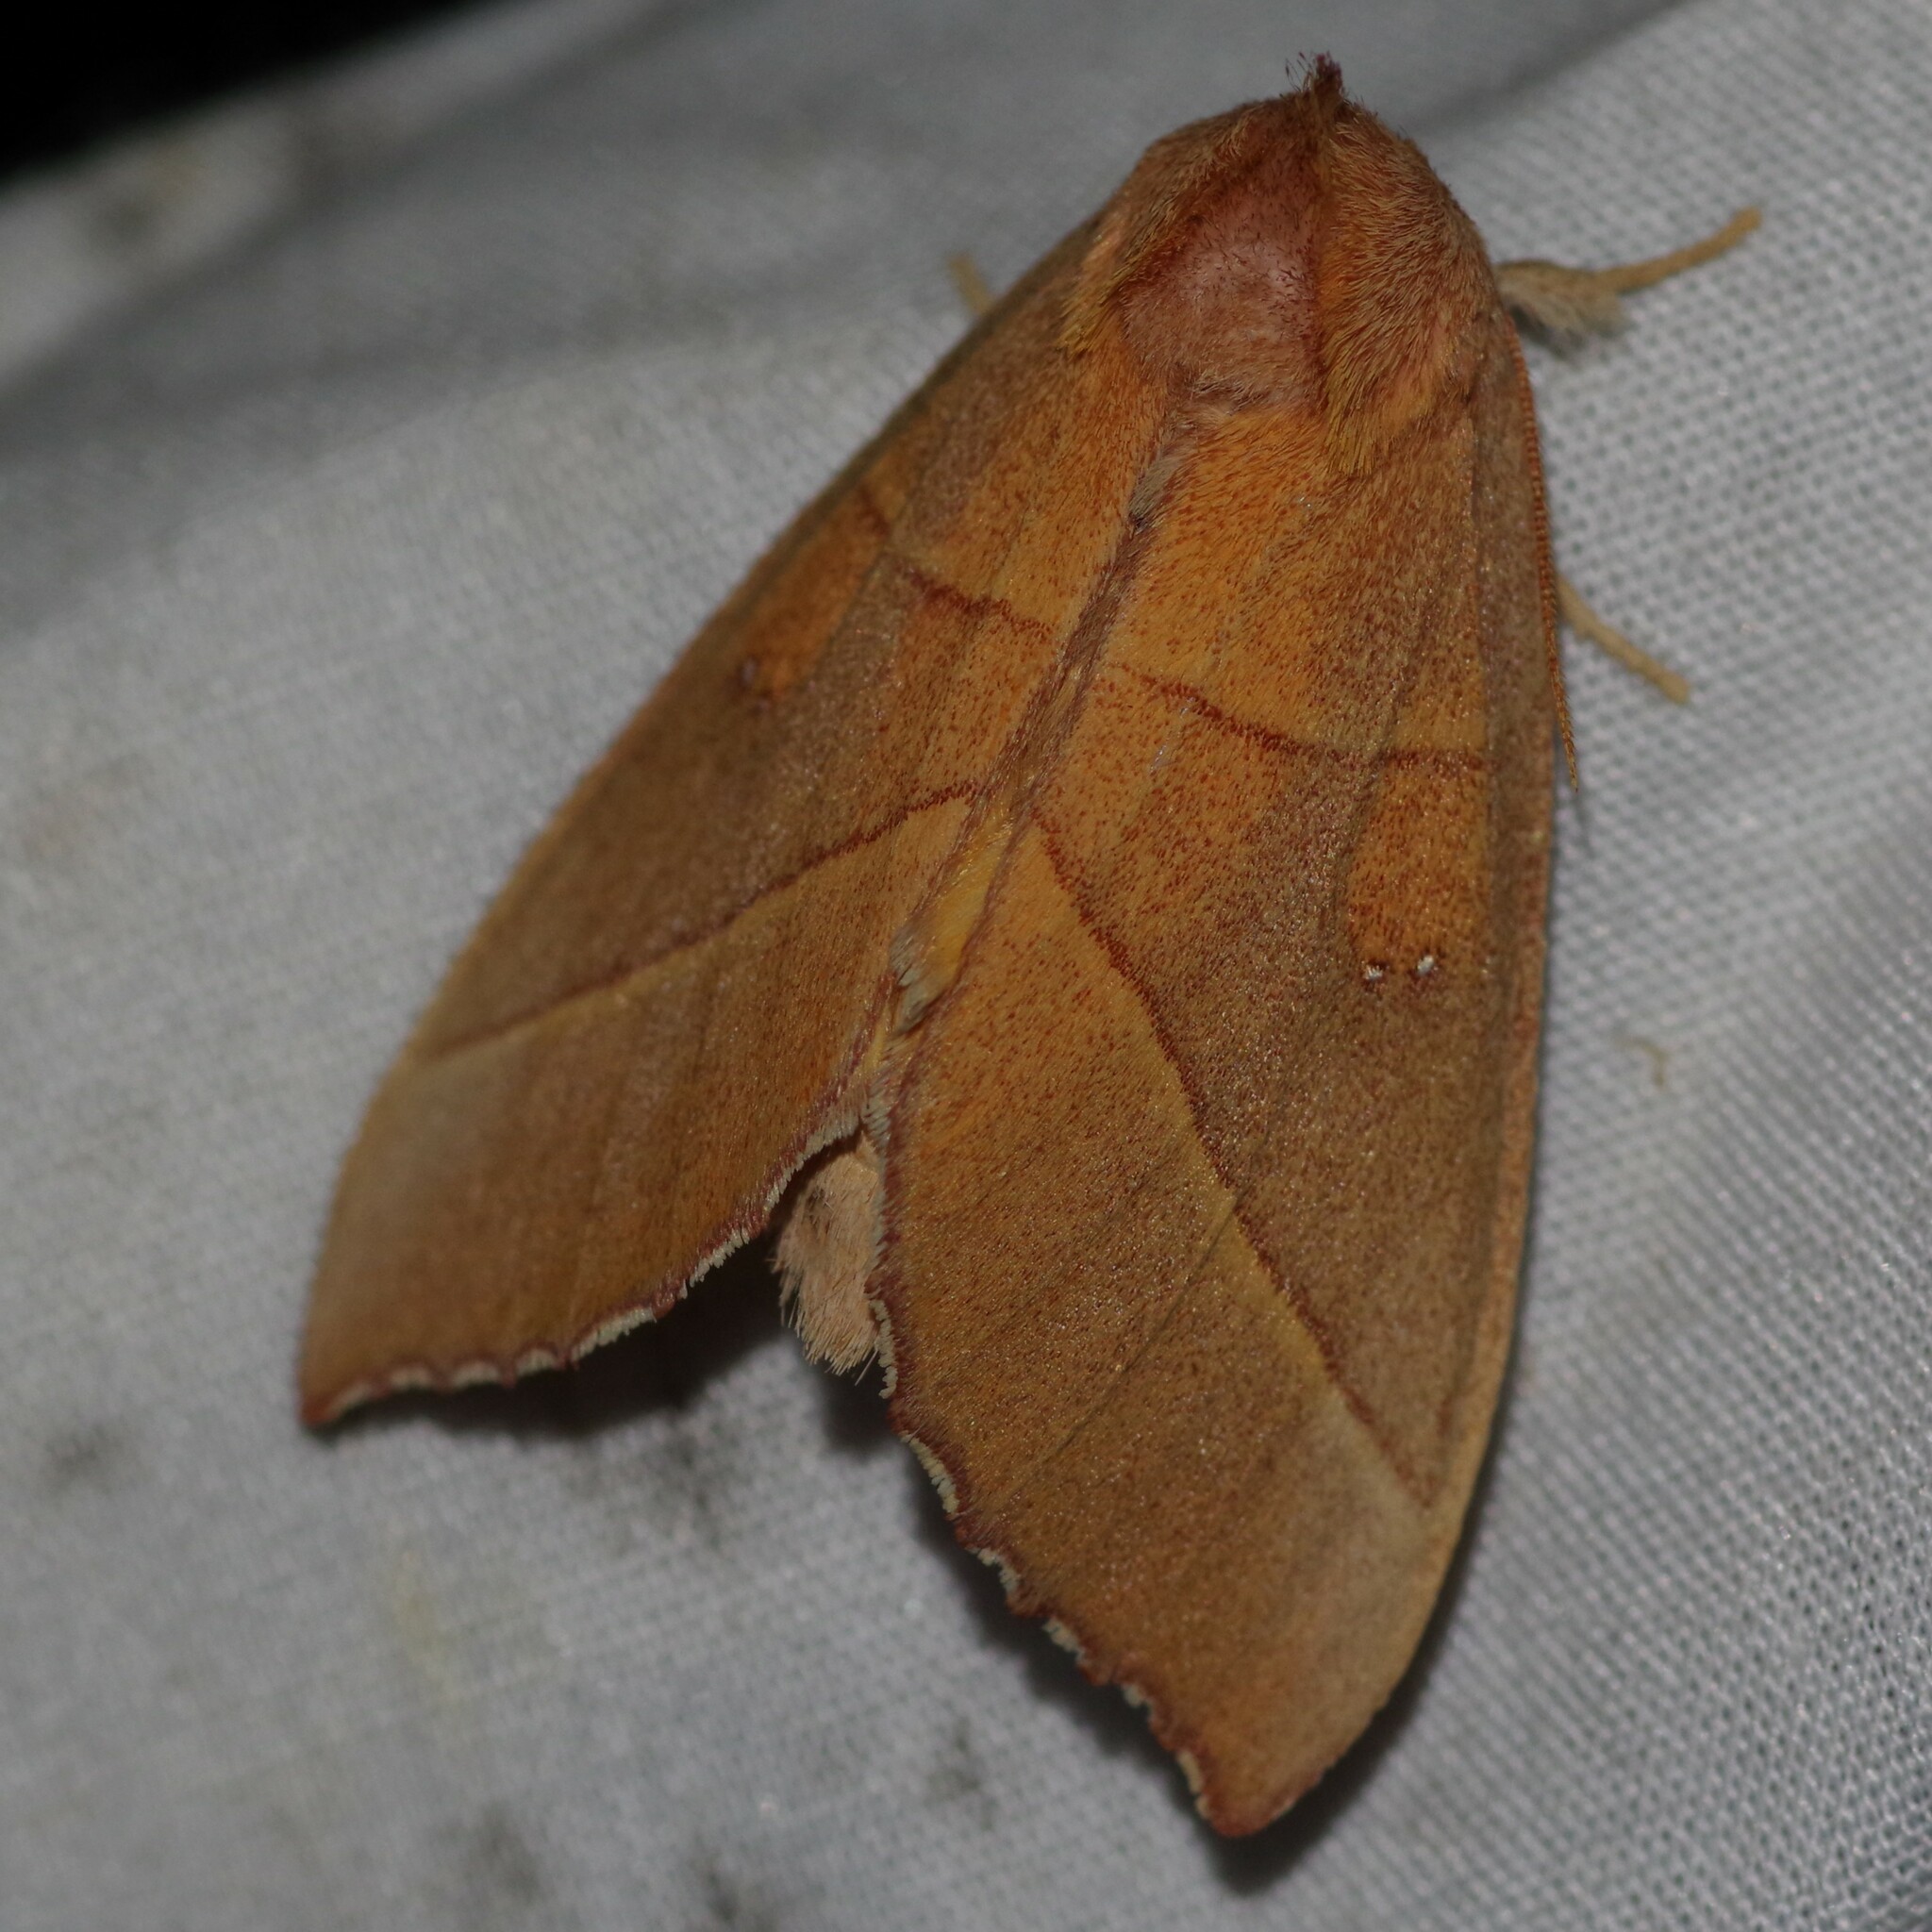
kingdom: Animalia
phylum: Arthropoda
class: Insecta
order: Lepidoptera
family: Notodontidae
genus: Nadata
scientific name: Nadata gibbosa
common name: White-dotted prominent
